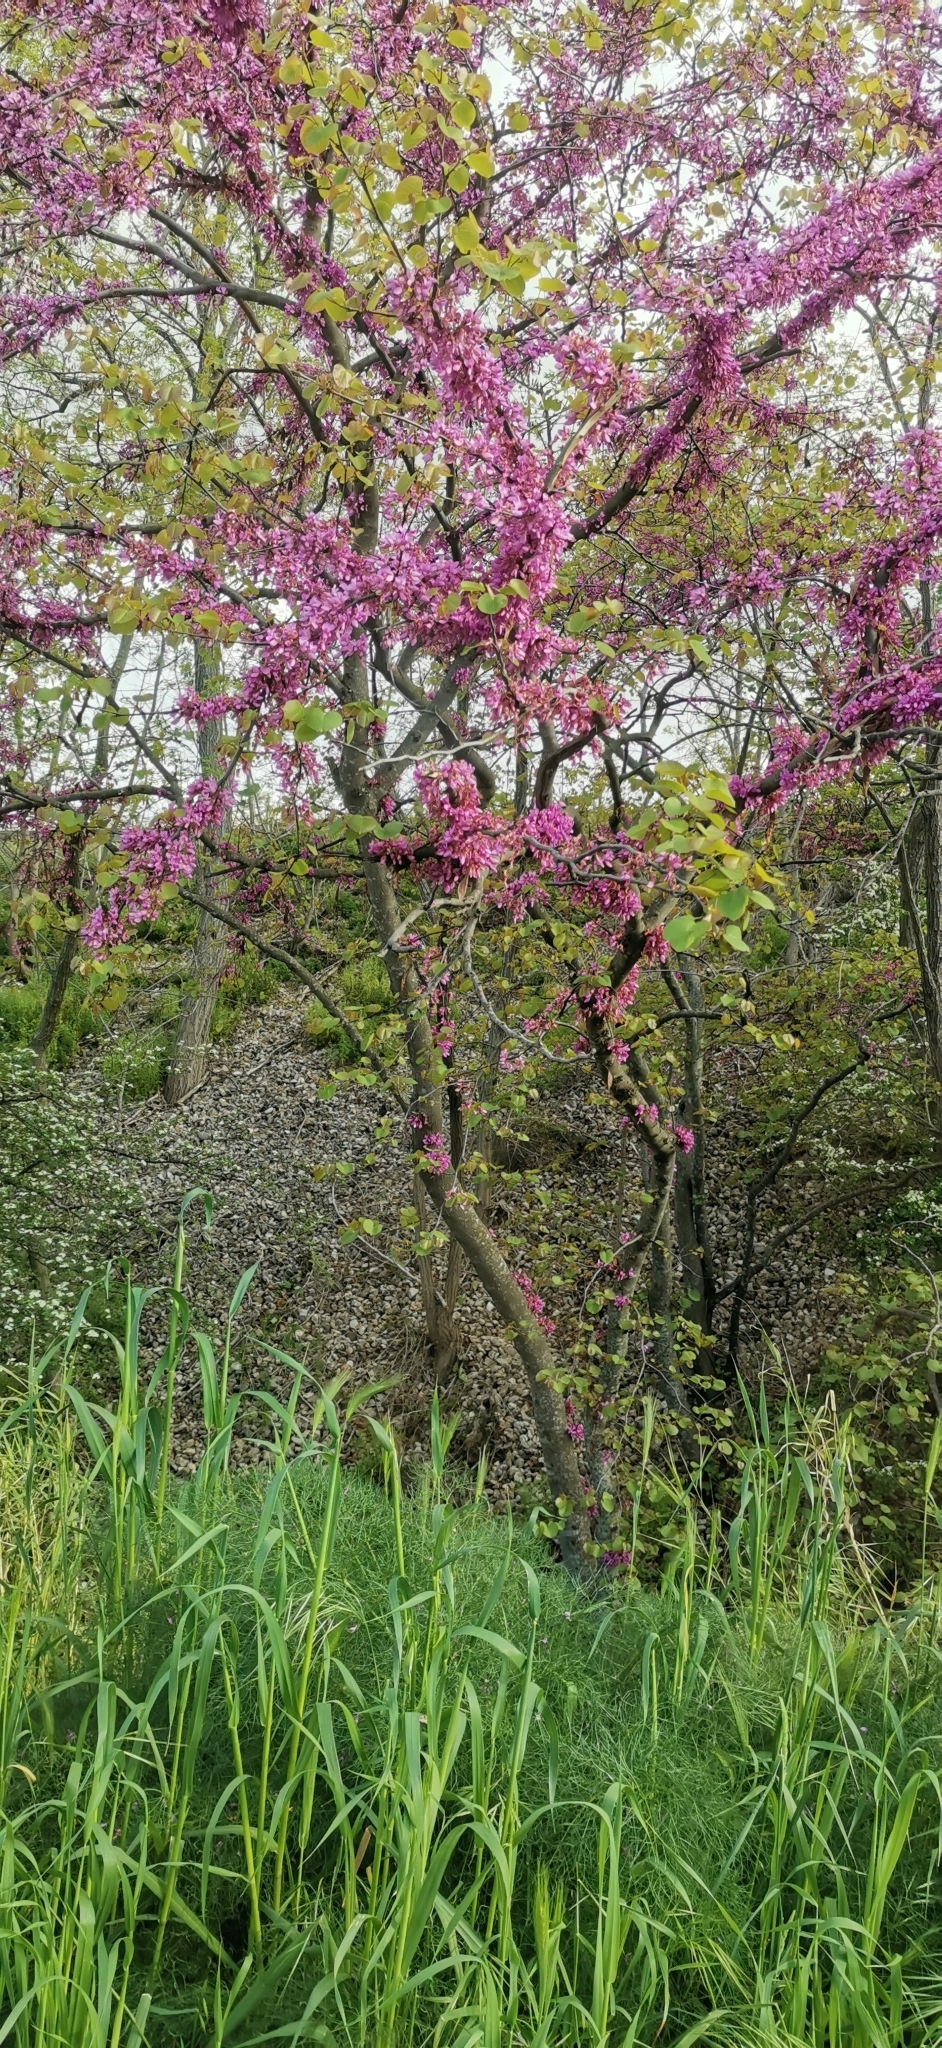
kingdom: Plantae
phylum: Tracheophyta
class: Magnoliopsida
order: Fabales
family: Fabaceae
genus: Cercis
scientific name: Cercis siliquastrum
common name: Judas tree
